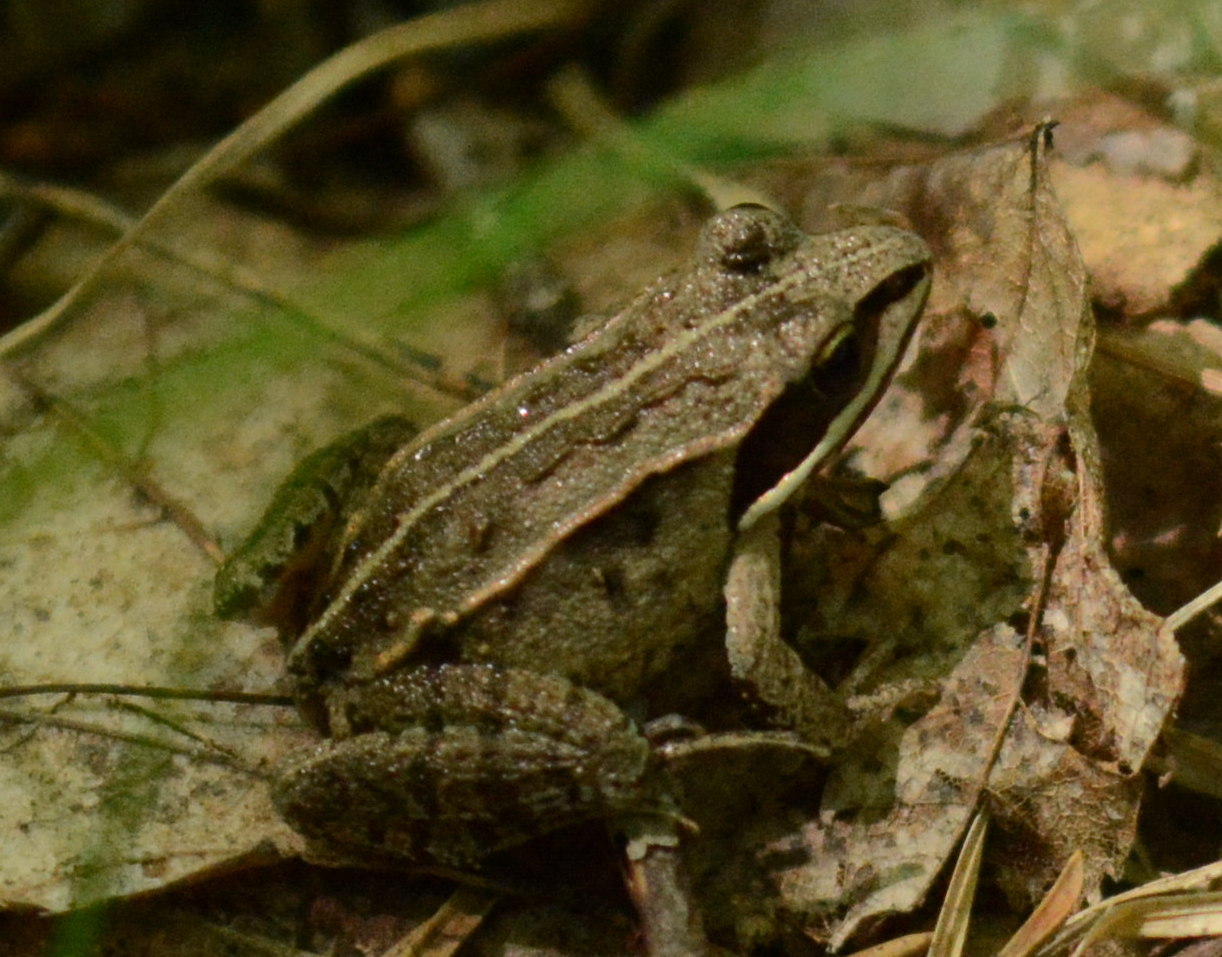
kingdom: Animalia
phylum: Chordata
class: Amphibia
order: Anura
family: Ranidae
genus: Lithobates
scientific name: Lithobates sylvaticus
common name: Wood frog
